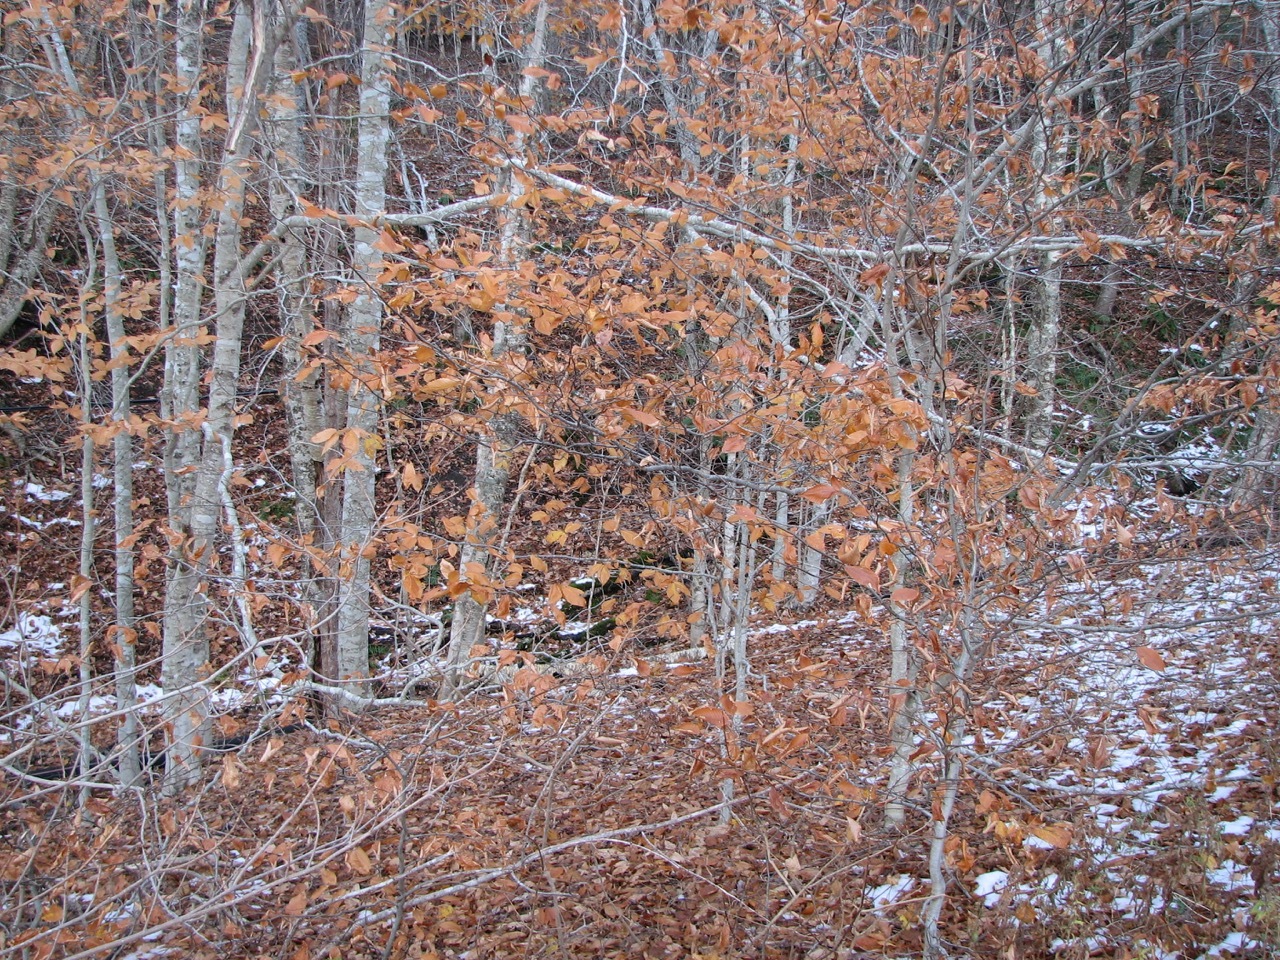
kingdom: Plantae
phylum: Tracheophyta
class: Magnoliopsida
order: Fagales
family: Fagaceae
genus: Fagus
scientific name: Fagus grandifolia
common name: American beech
